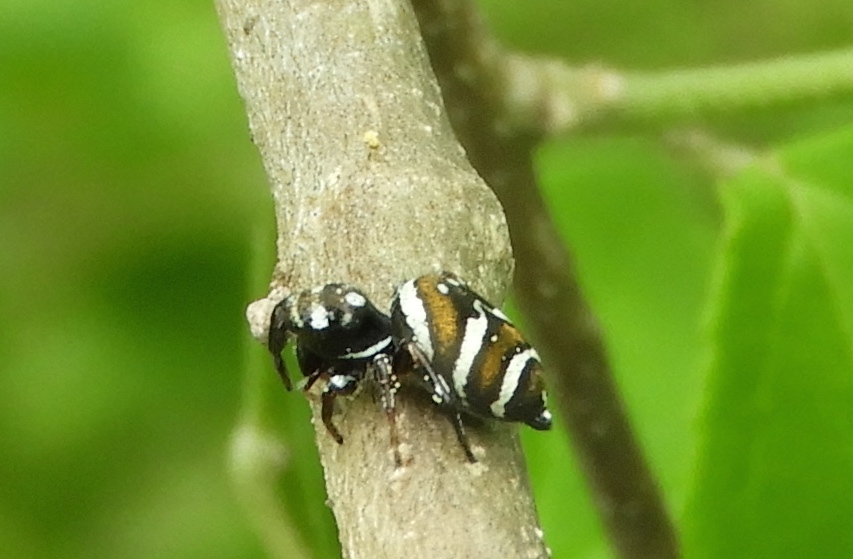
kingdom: Animalia
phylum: Arthropoda
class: Arachnida
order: Araneae
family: Salticidae
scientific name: Salticidae
